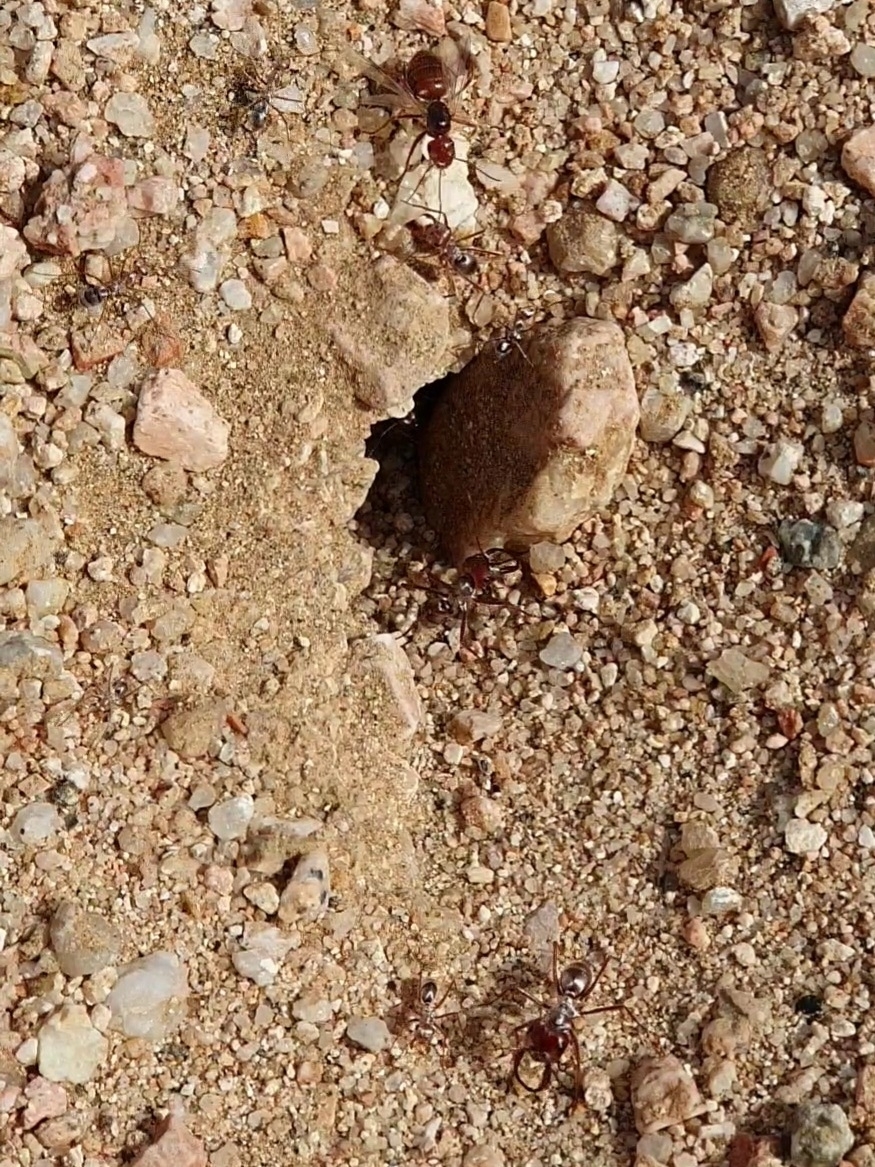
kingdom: Animalia
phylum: Arthropoda
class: Insecta
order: Hymenoptera
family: Formicidae
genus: Cataglyphis
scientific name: Cataglyphis bombycinus
